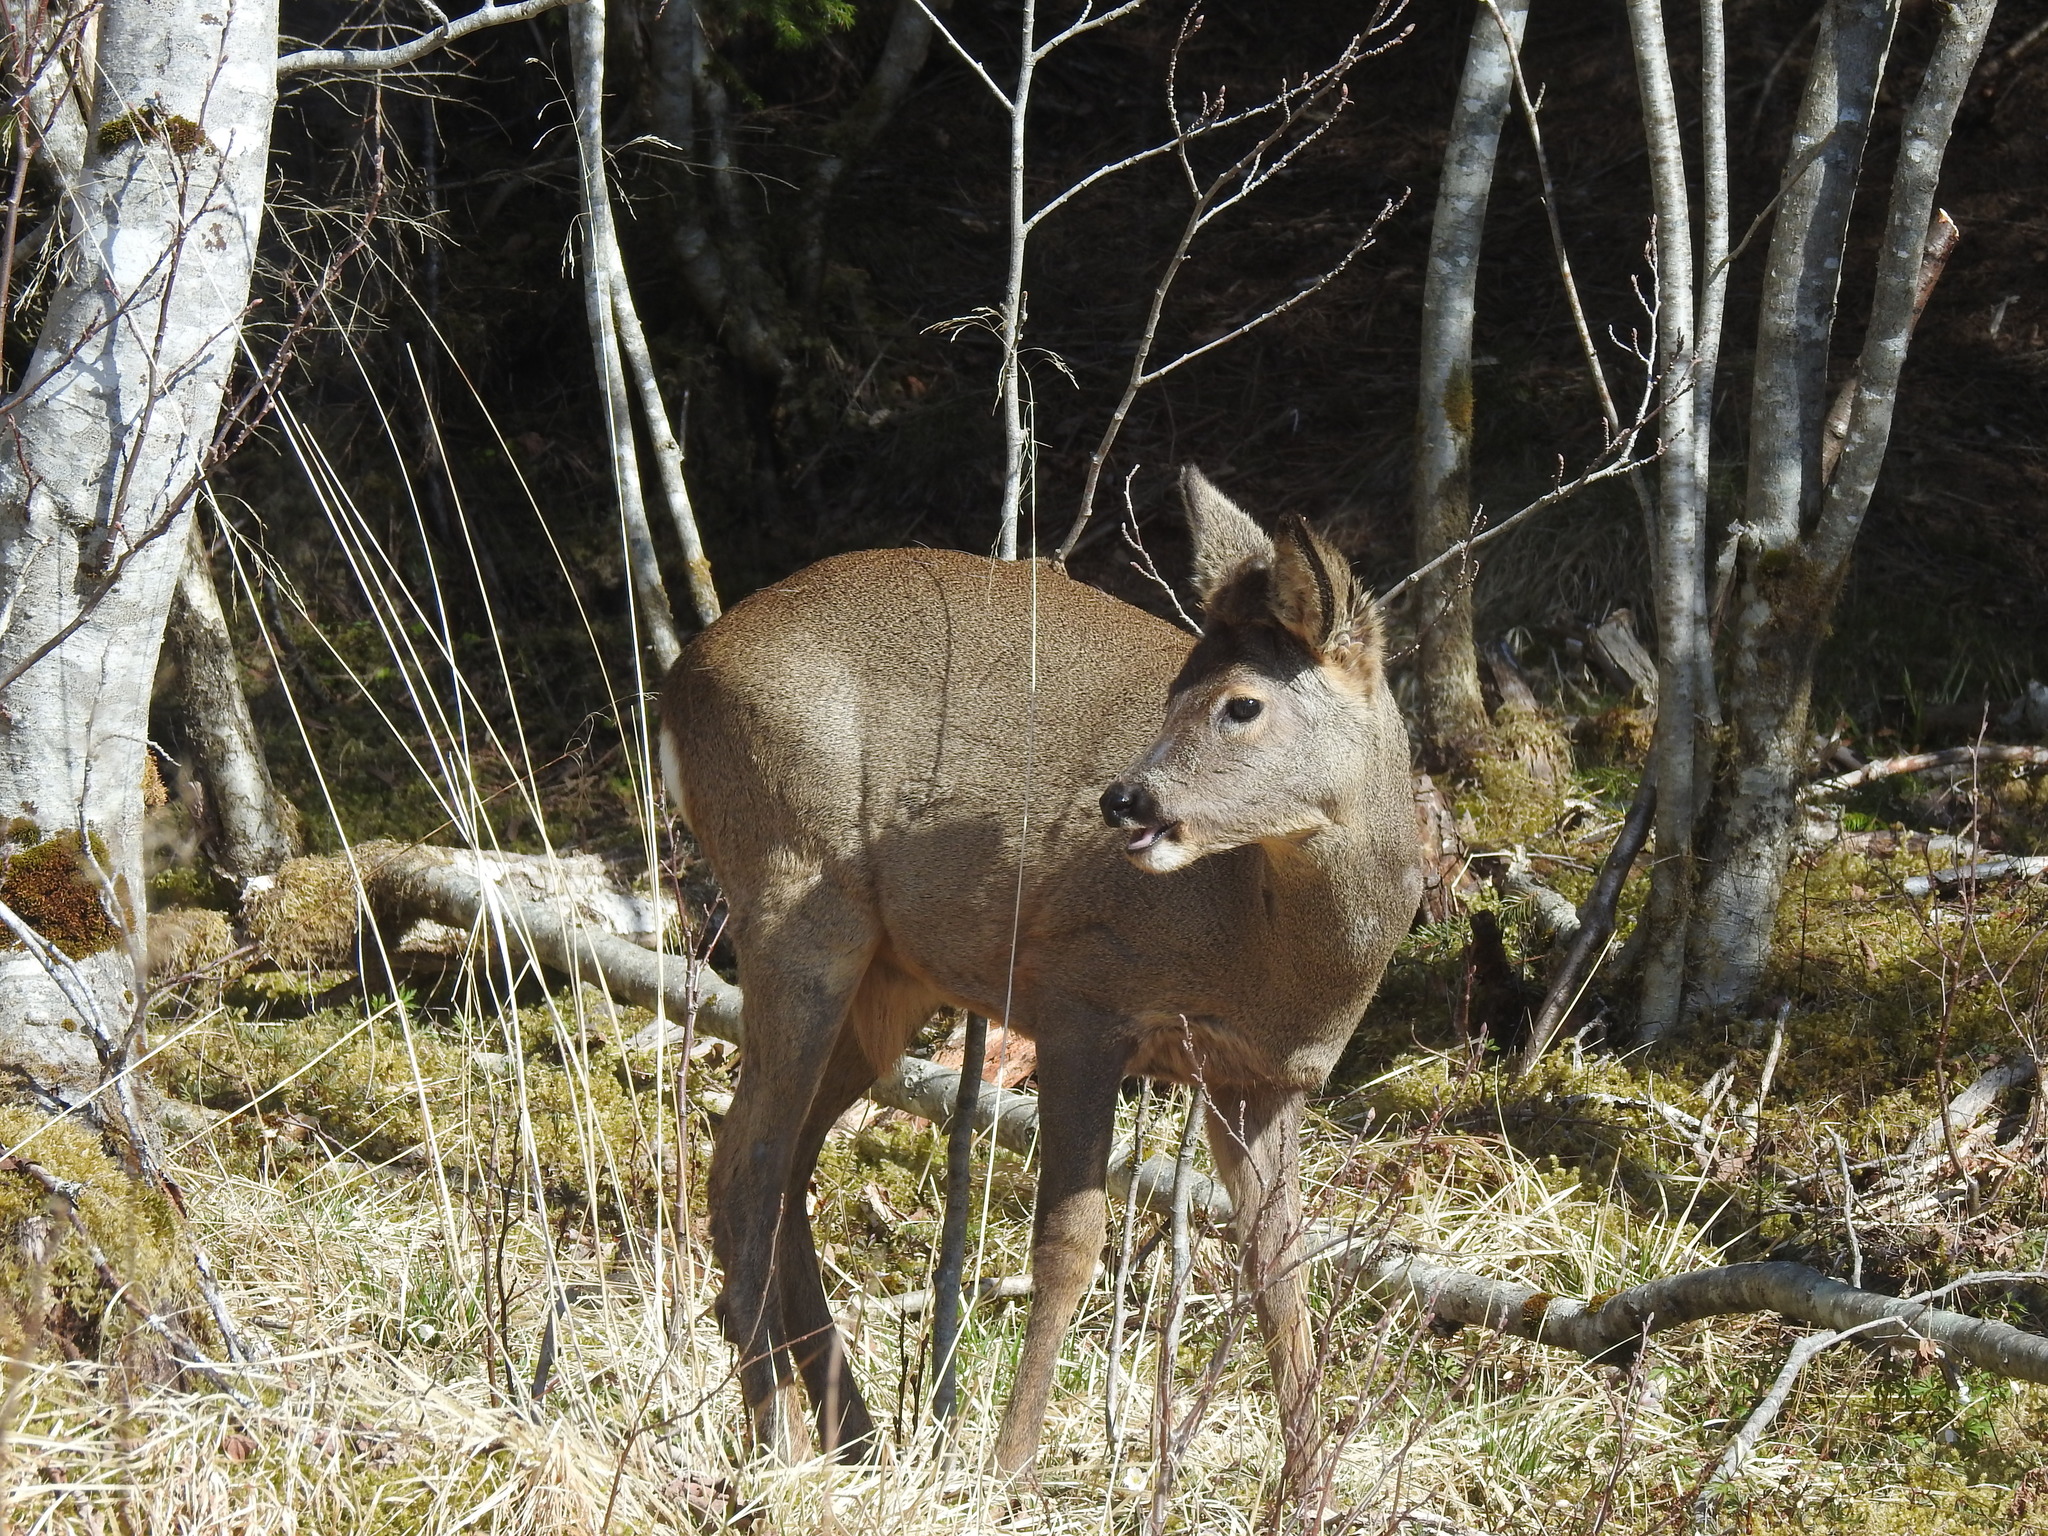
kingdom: Animalia
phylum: Chordata
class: Mammalia
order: Artiodactyla
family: Cervidae
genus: Capreolus
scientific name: Capreolus capreolus
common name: Western roe deer
